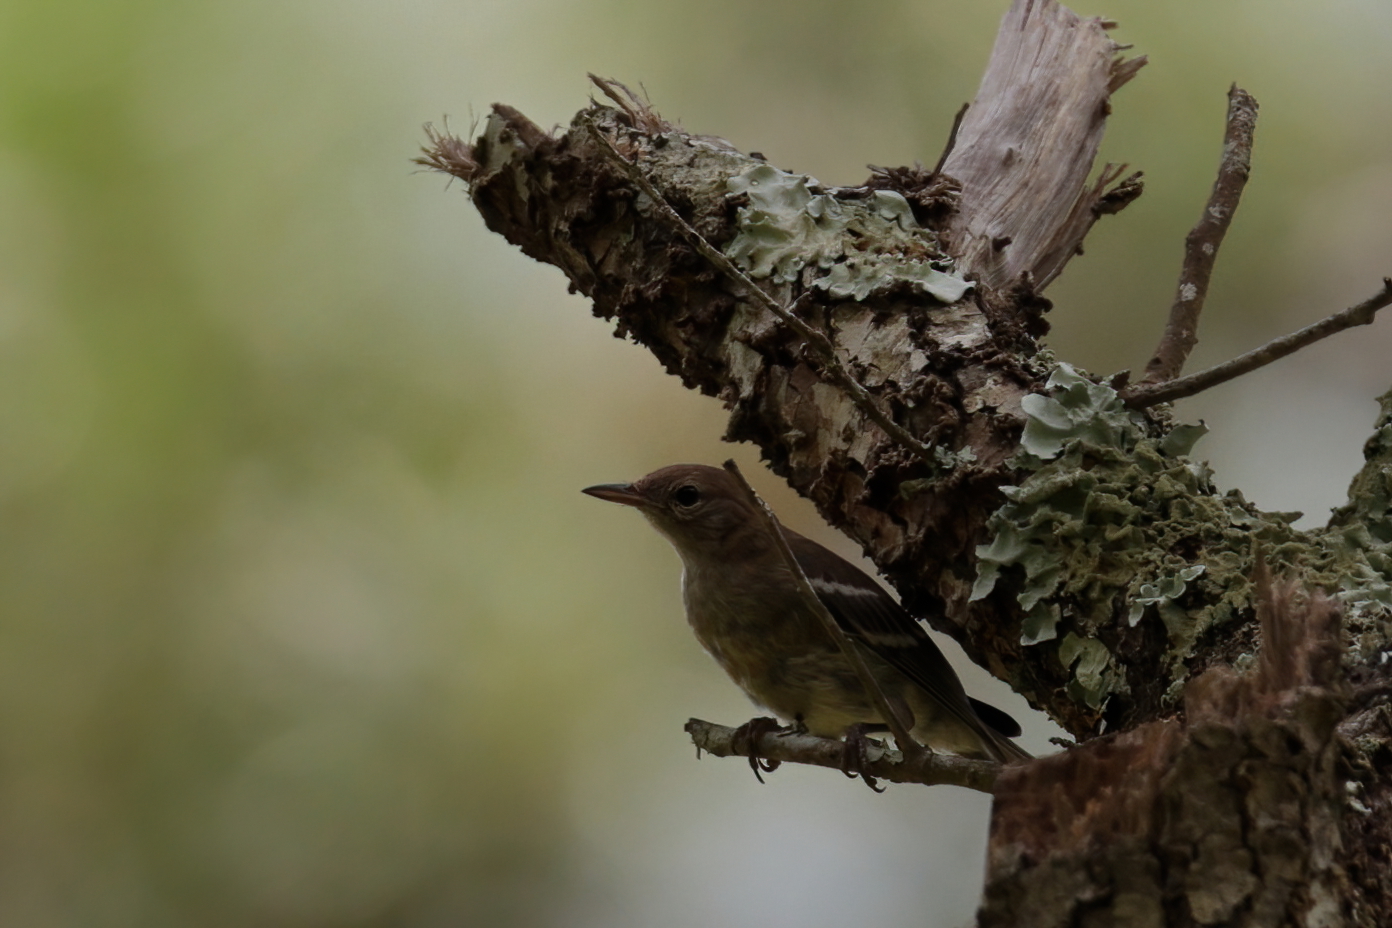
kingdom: Animalia
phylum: Chordata
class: Aves
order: Passeriformes
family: Parulidae
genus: Setophaga
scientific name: Setophaga pinus
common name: Pine warbler
